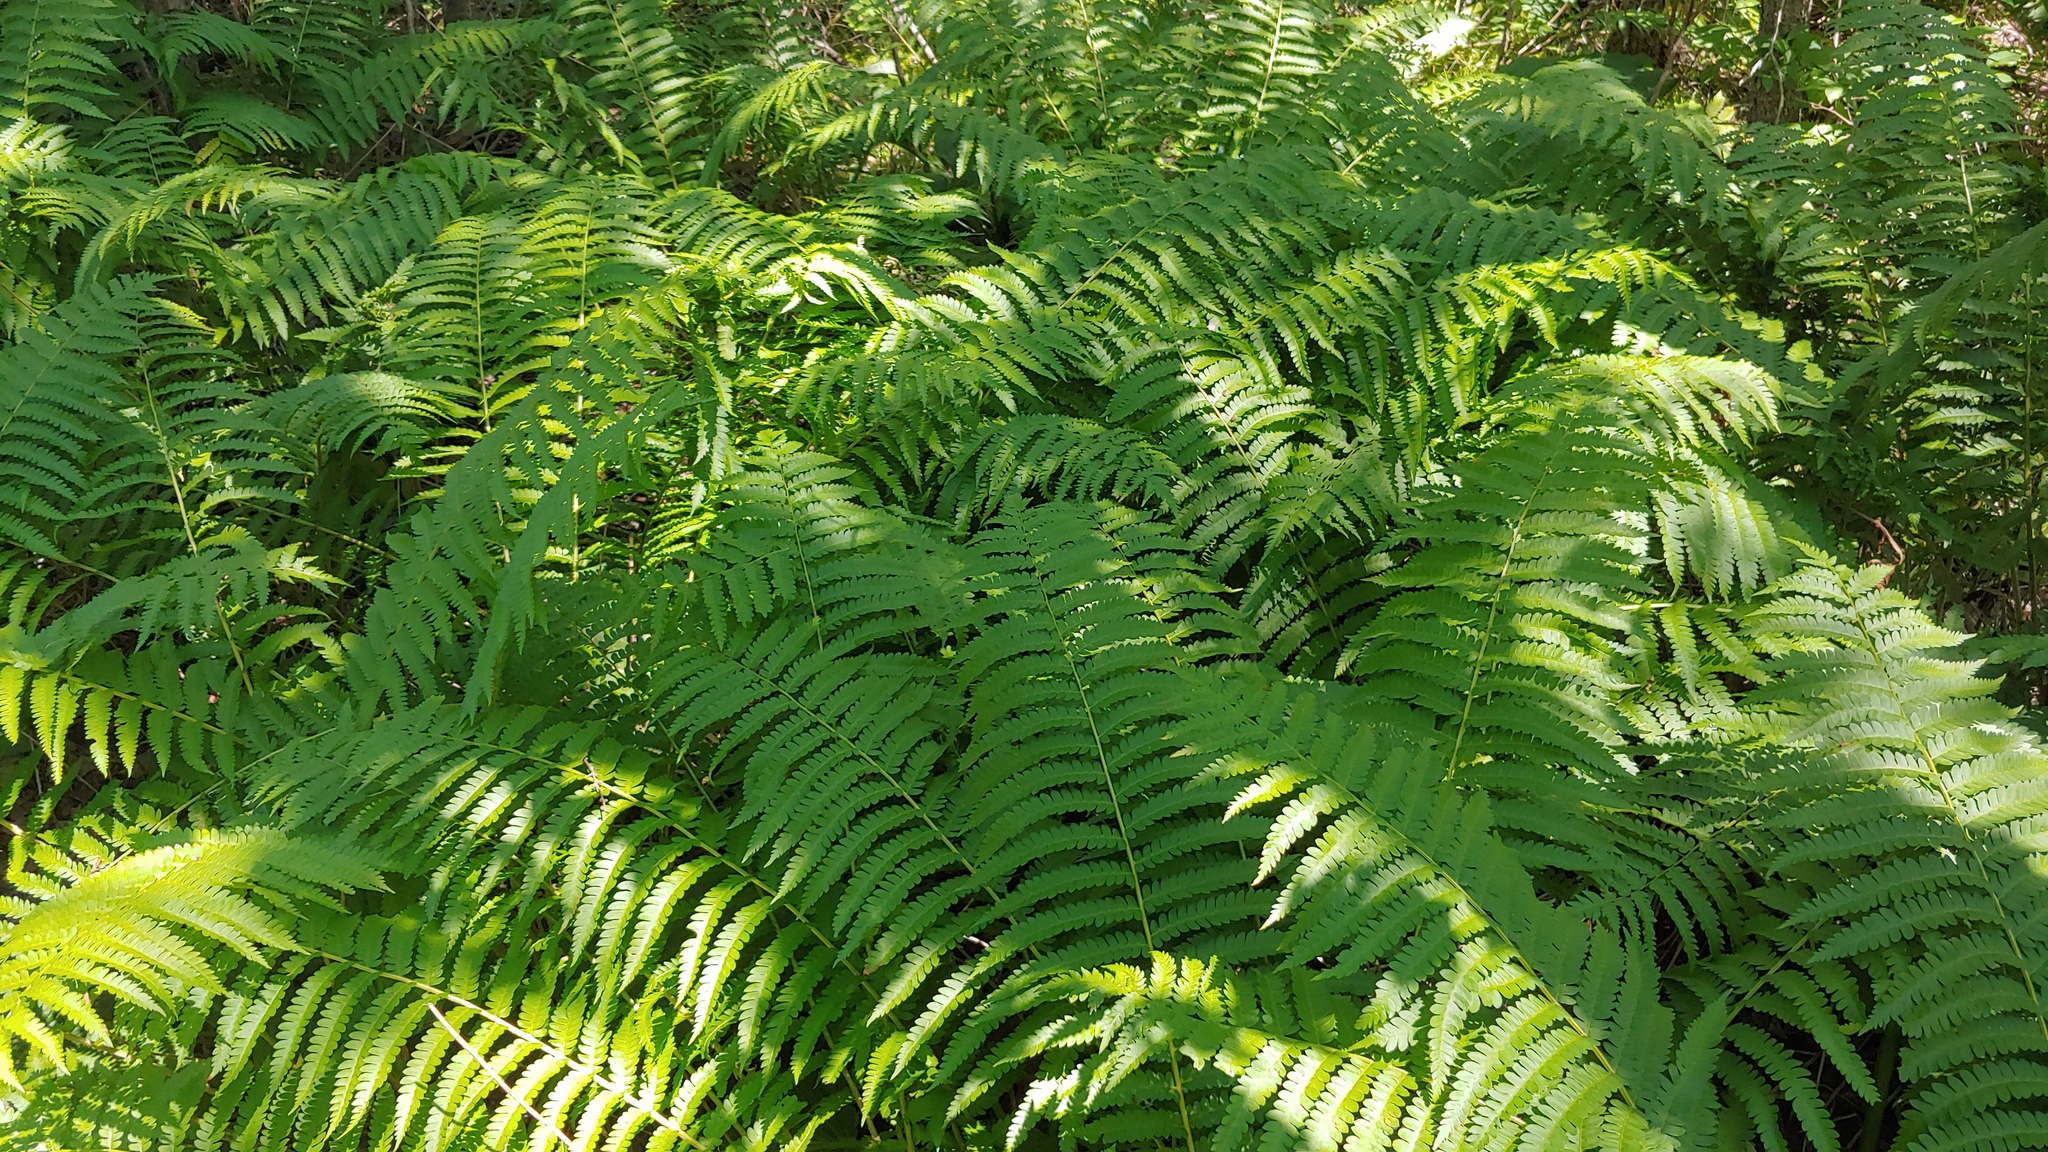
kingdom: Plantae
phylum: Tracheophyta
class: Polypodiopsida
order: Osmundales
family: Osmundaceae
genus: Osmundastrum
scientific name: Osmundastrum cinnamomeum
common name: Cinnamon fern
